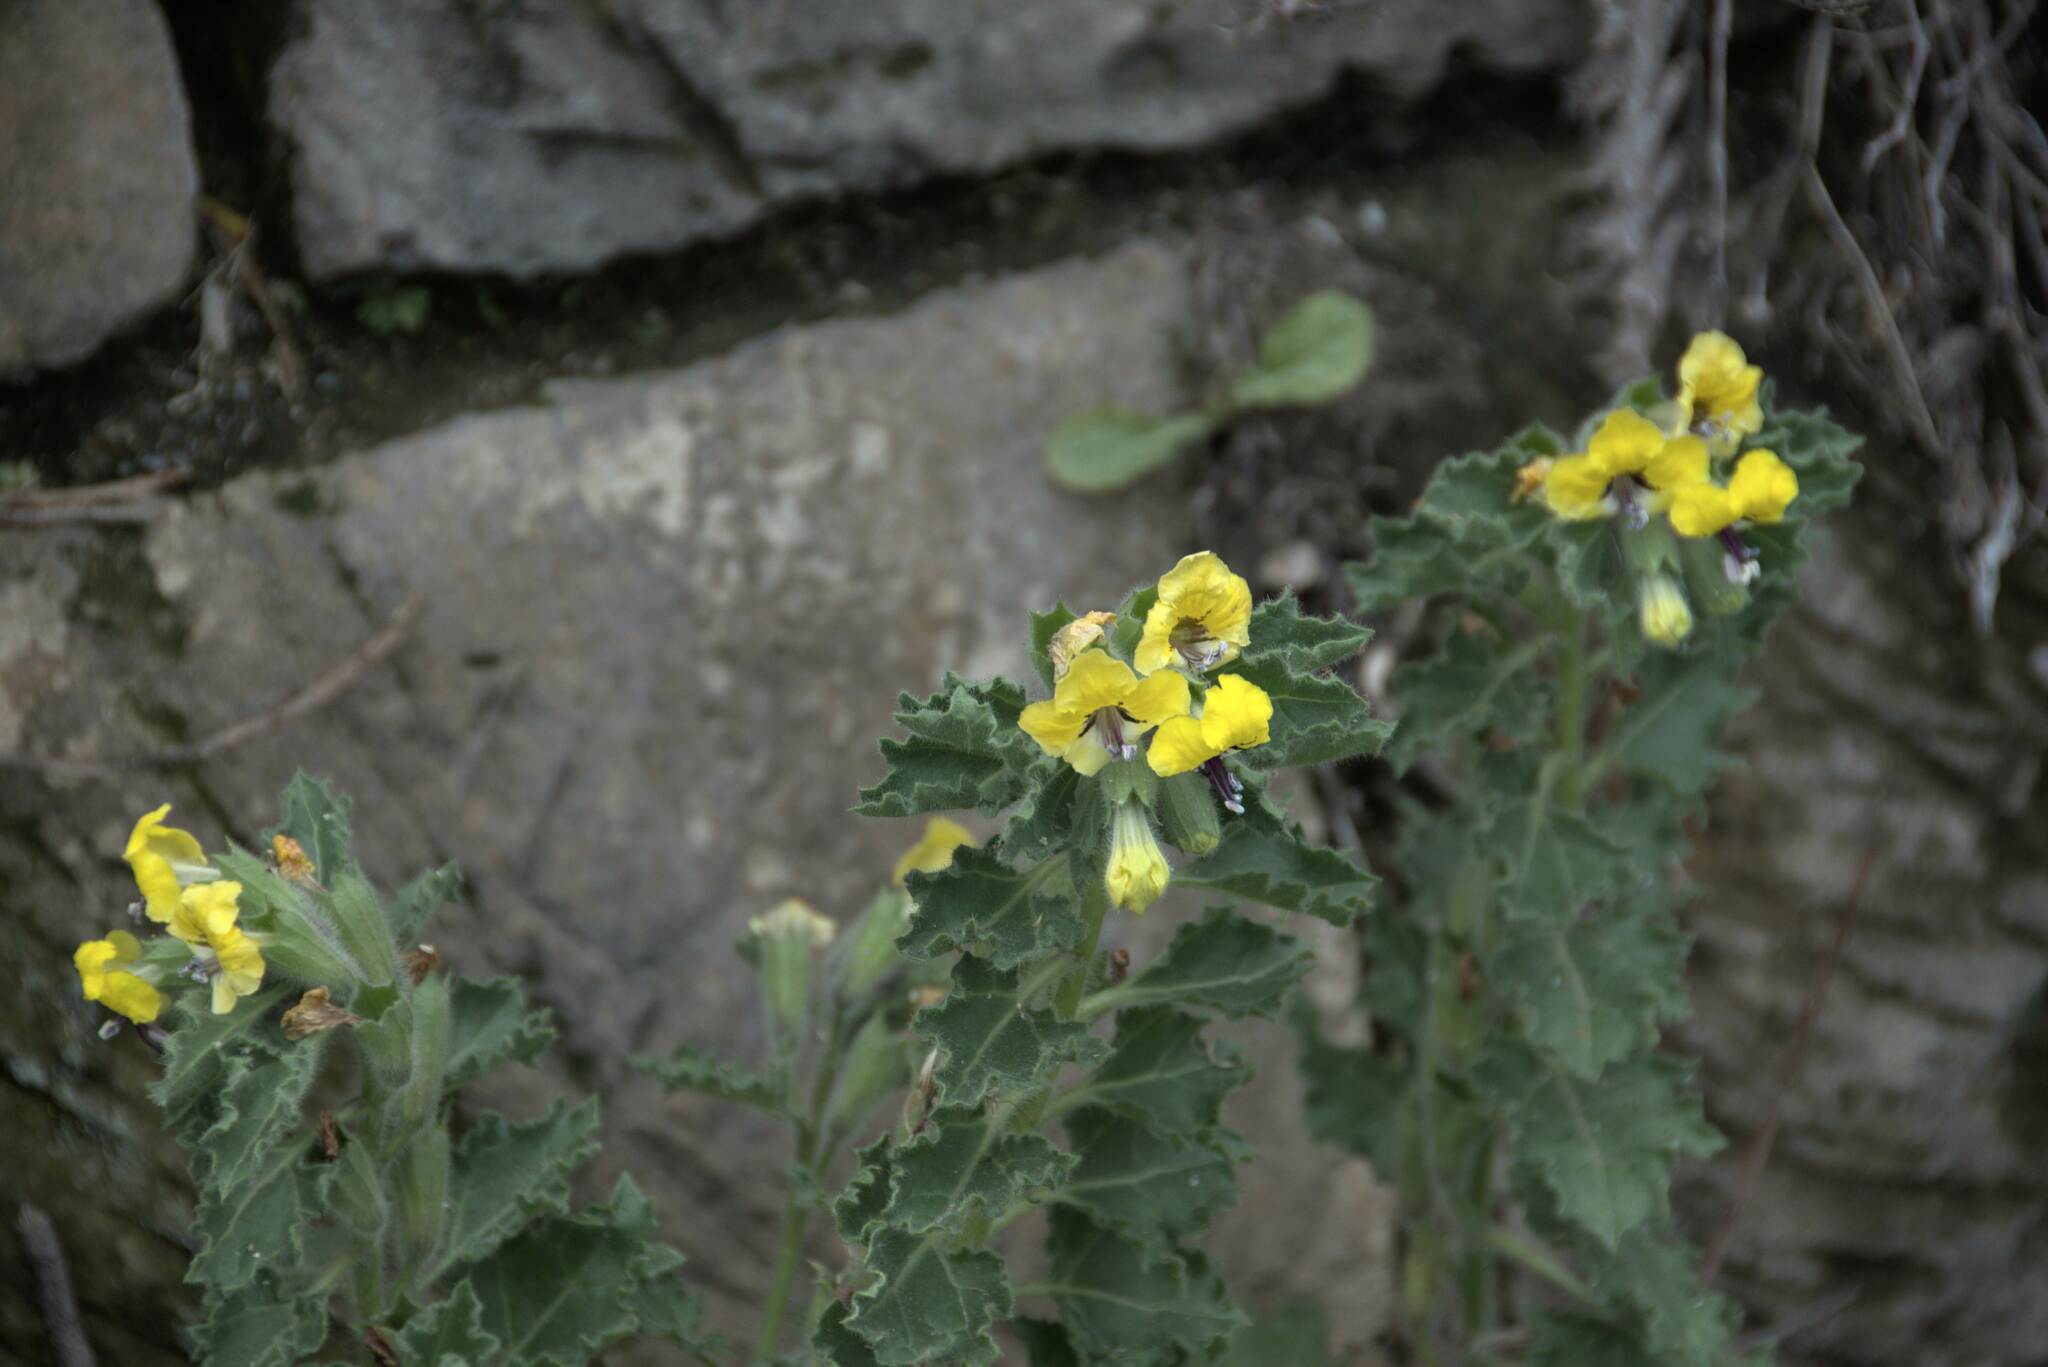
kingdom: Plantae
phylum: Tracheophyta
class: Magnoliopsida
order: Solanales
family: Solanaceae
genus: Hyoscyamus
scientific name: Hyoscyamus aureus
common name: Golden henbane
